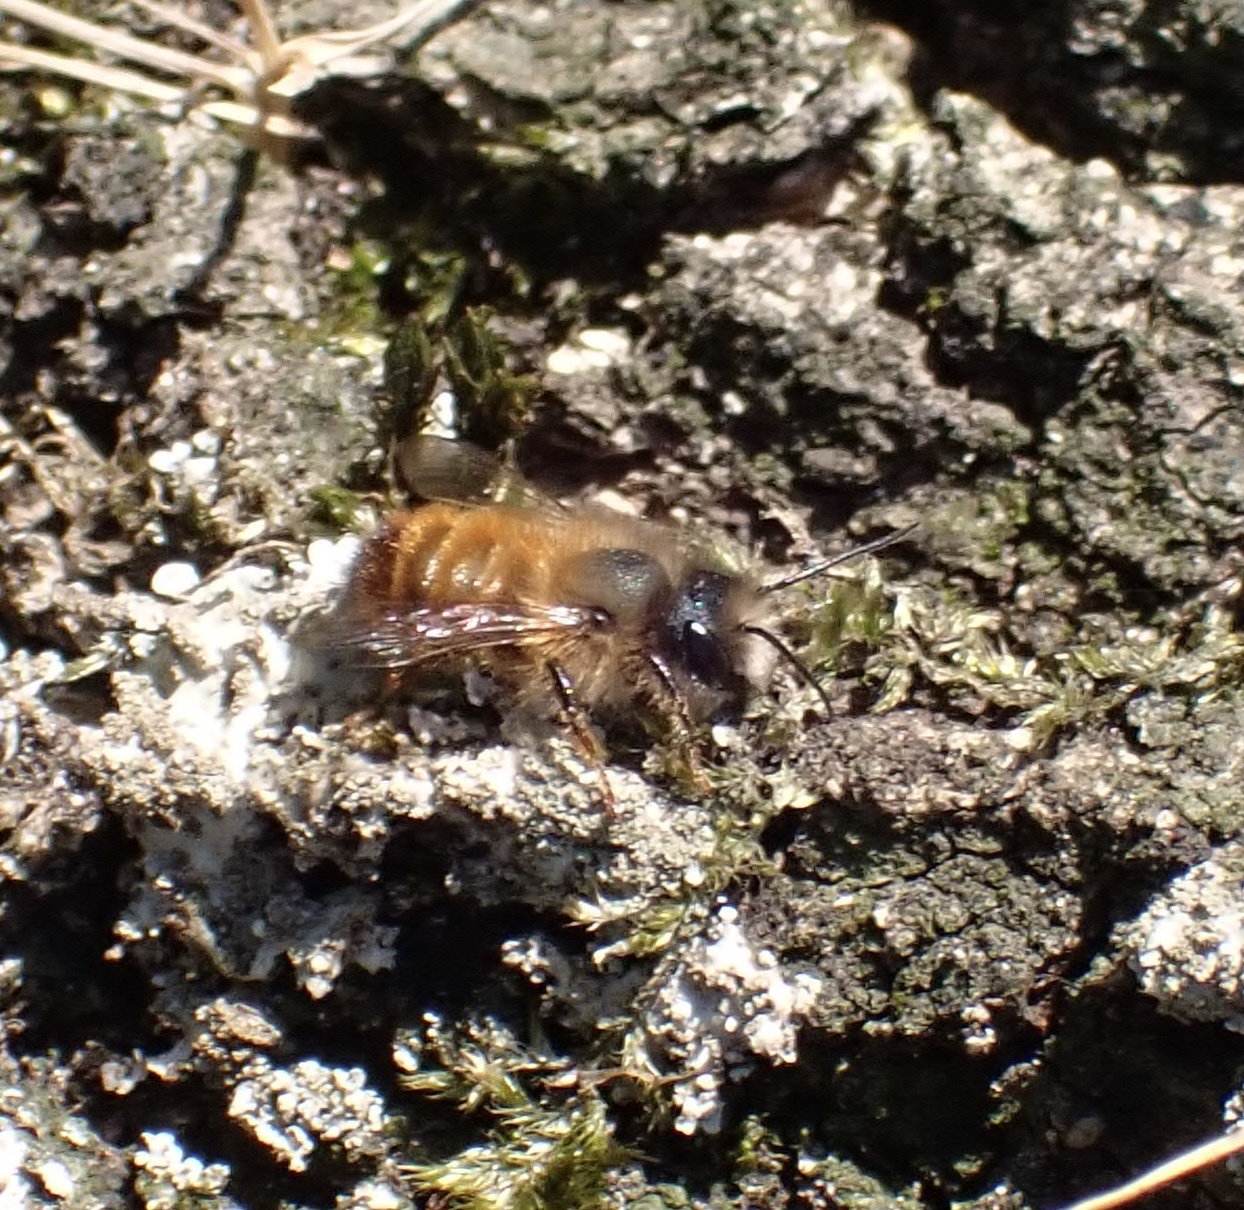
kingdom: Animalia
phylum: Arthropoda
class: Insecta
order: Hymenoptera
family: Megachilidae
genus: Osmia
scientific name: Osmia bicornis
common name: Red mason bee
